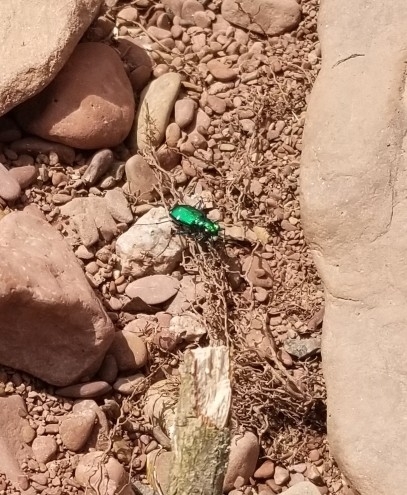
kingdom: Animalia
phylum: Arthropoda
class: Insecta
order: Coleoptera
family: Carabidae
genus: Cicindela
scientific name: Cicindela sexguttata
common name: Six-spotted tiger beetle
